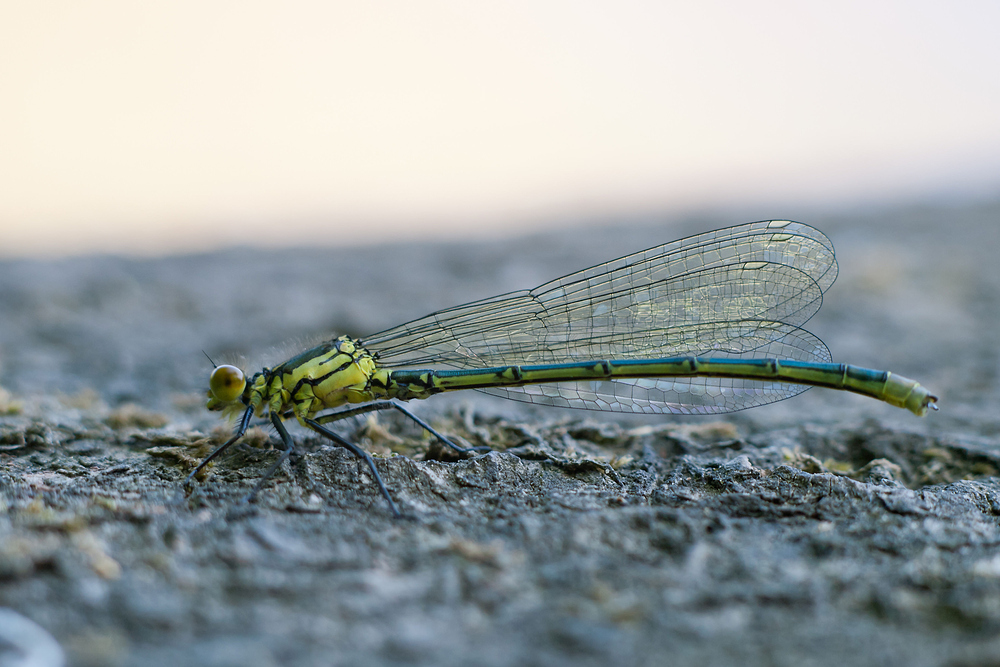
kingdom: Animalia
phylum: Arthropoda
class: Insecta
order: Odonata
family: Coenagrionidae
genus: Erythromma
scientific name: Erythromma najas
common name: Red-eyed damselfly
